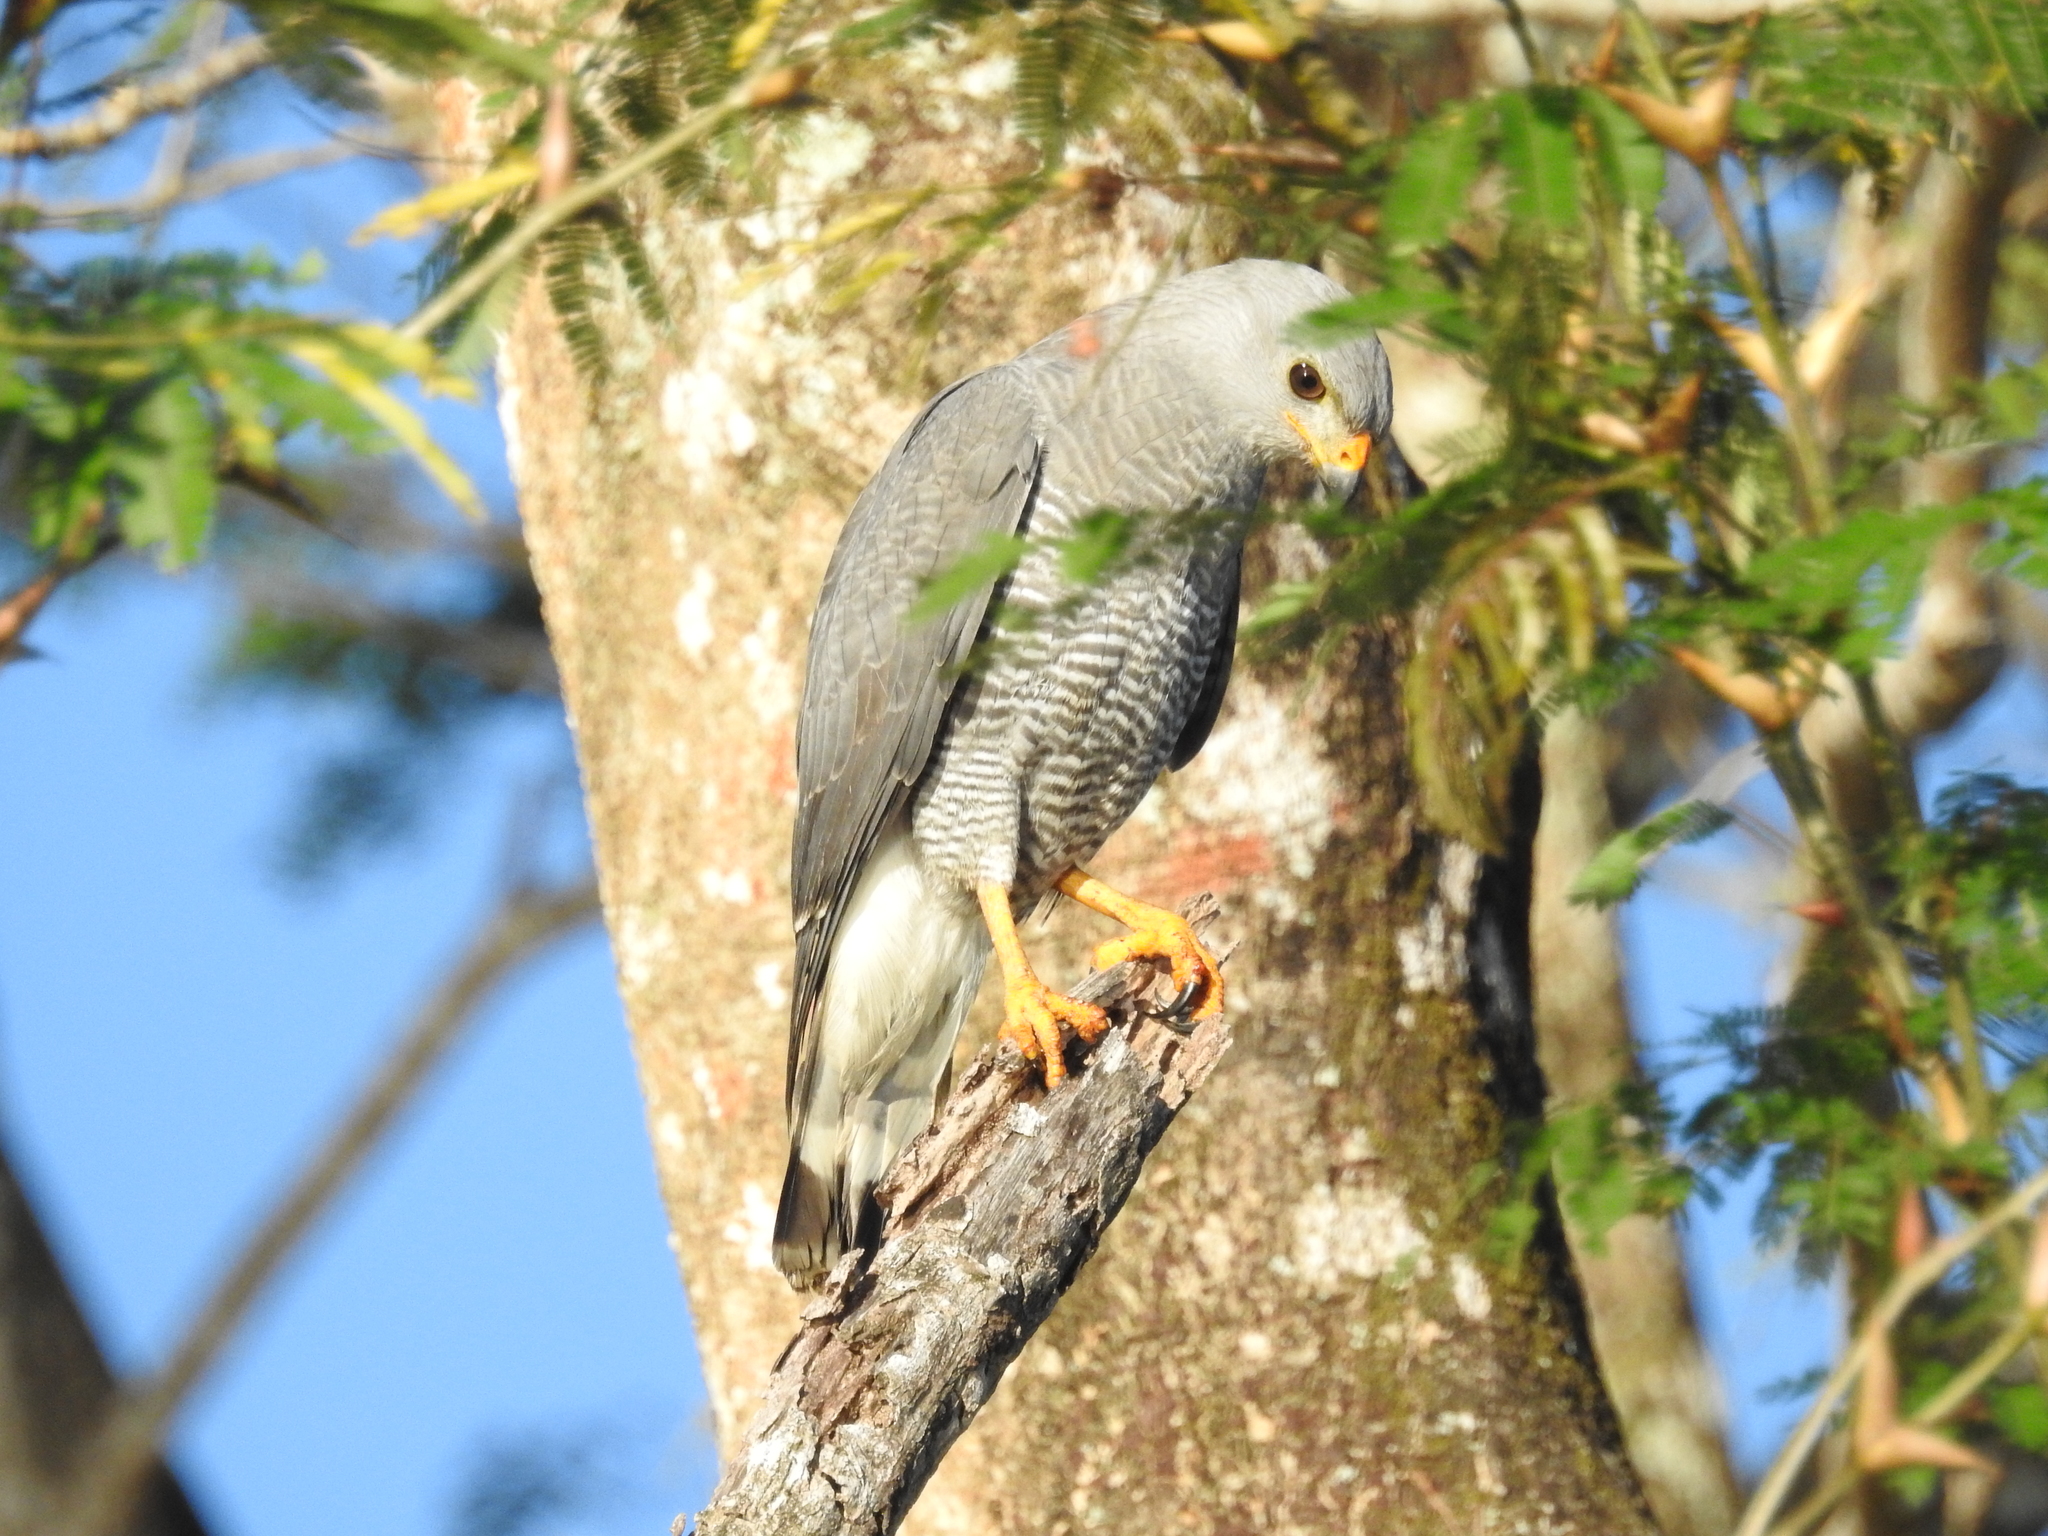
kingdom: Animalia
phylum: Chordata
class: Aves
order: Accipitriformes
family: Accipitridae
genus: Buteo
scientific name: Buteo nitidus
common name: Grey-lined hawk
